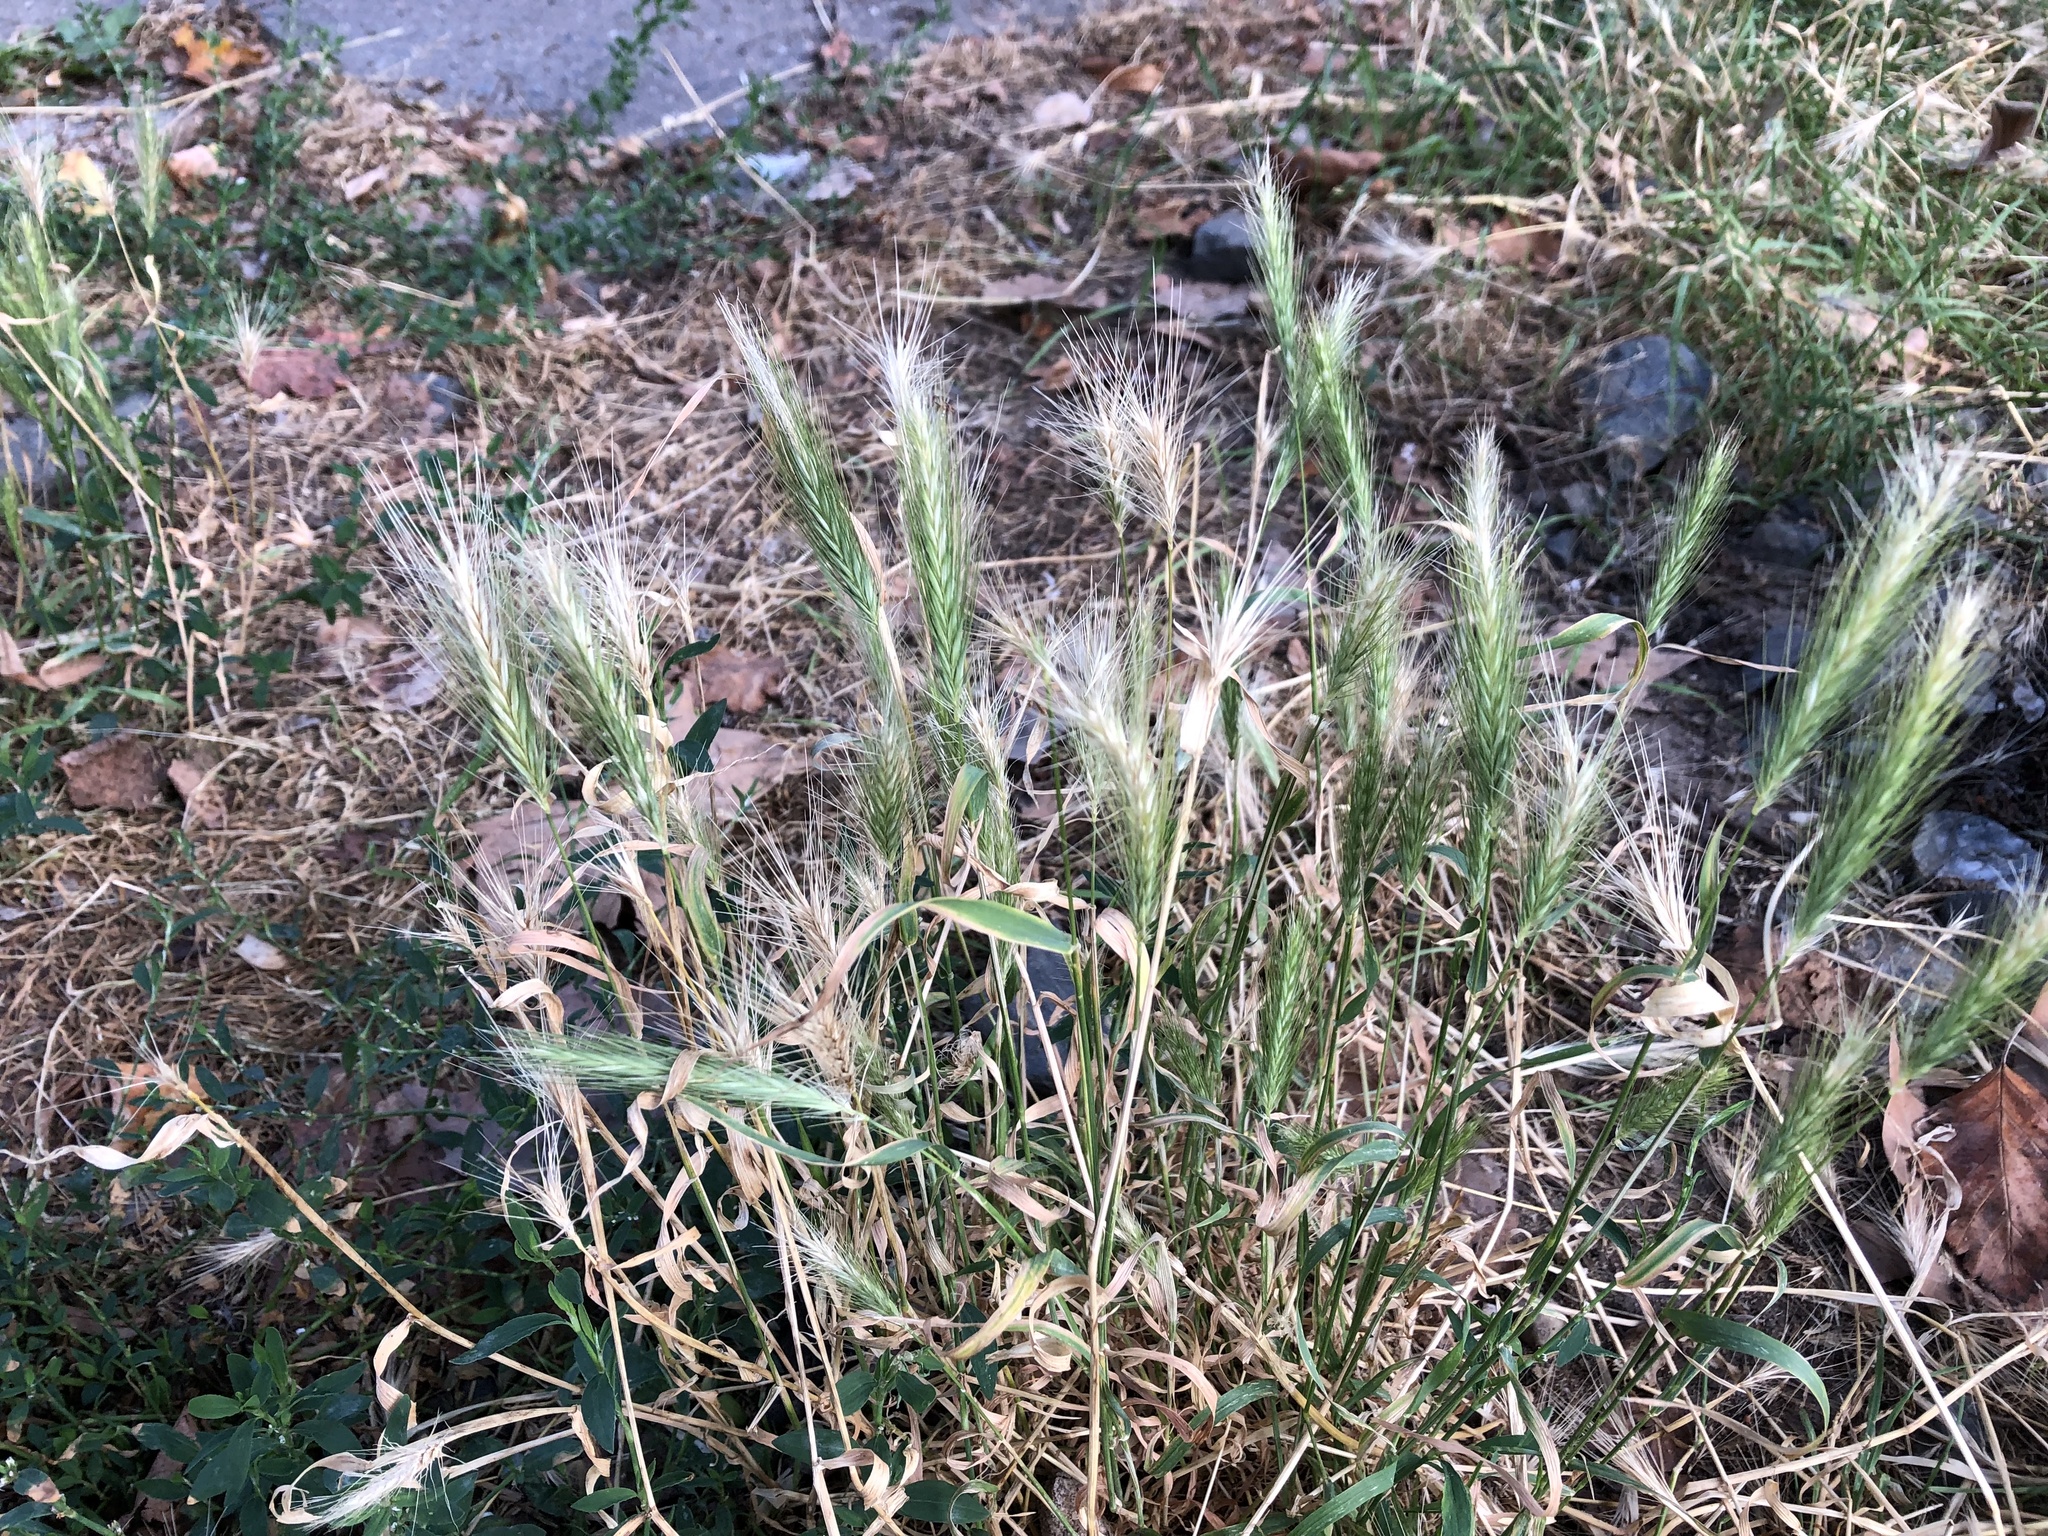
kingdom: Plantae
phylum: Tracheophyta
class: Liliopsida
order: Poales
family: Poaceae
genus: Hordeum
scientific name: Hordeum murinum
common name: Wall barley
